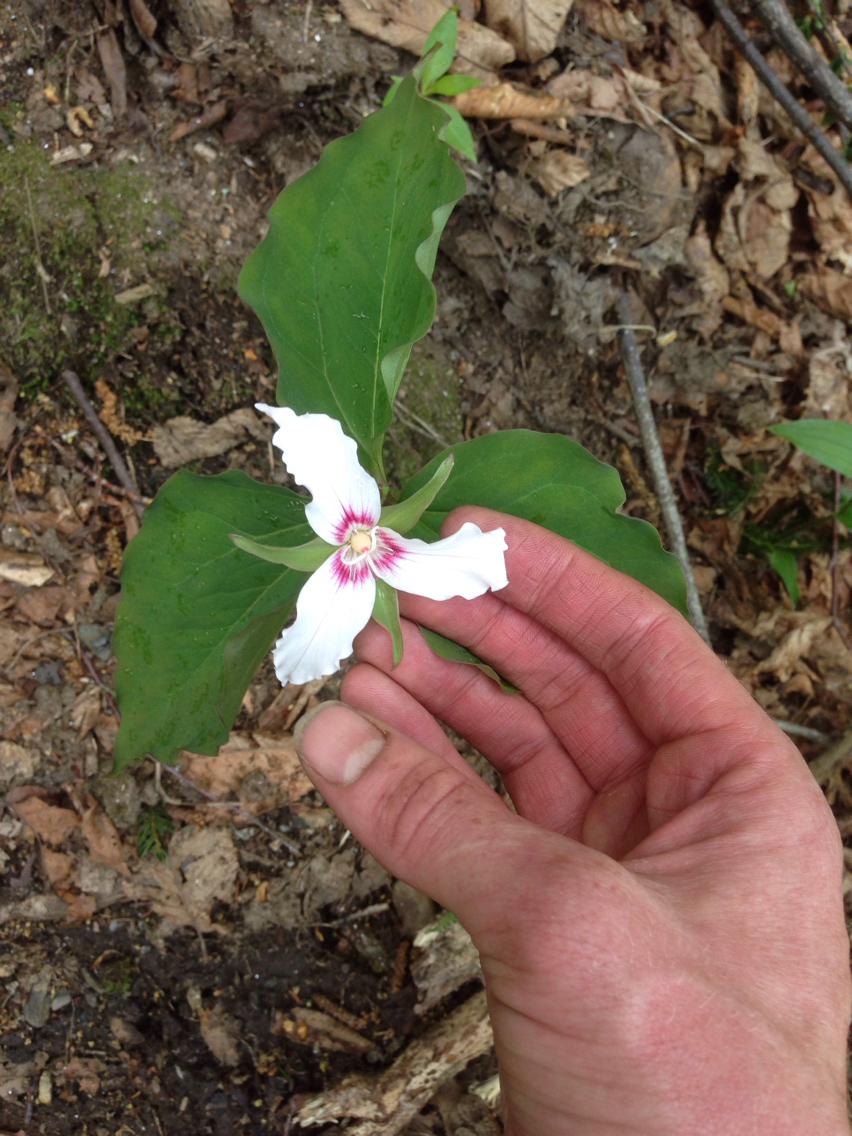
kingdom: Plantae
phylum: Tracheophyta
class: Liliopsida
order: Liliales
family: Melanthiaceae
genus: Trillium
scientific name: Trillium undulatum
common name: Paint trillium
